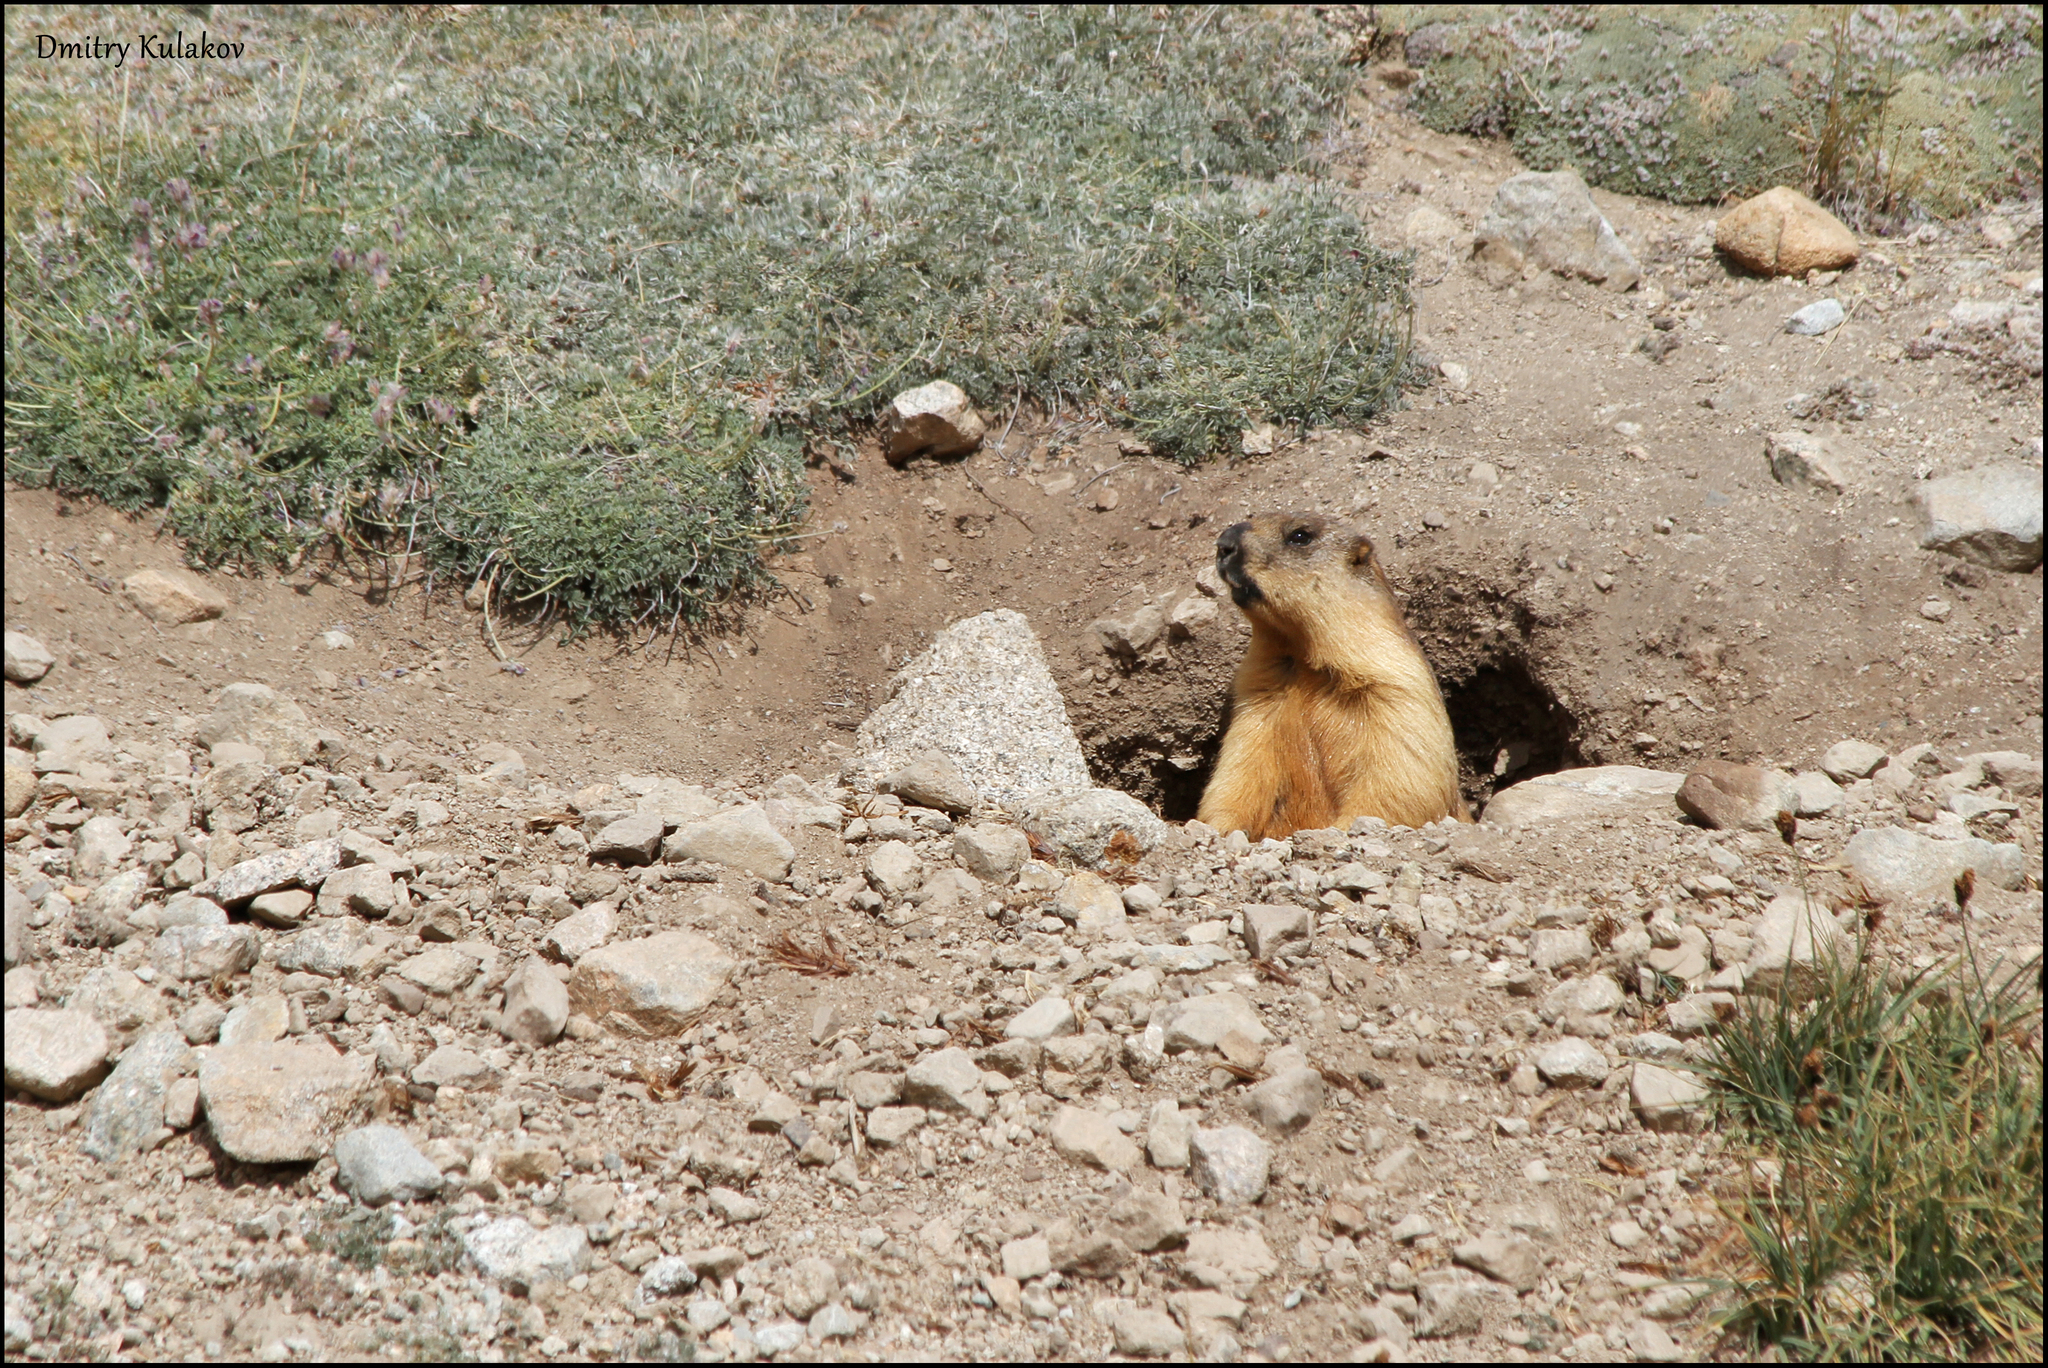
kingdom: Animalia
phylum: Chordata
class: Mammalia
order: Rodentia
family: Sciuridae
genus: Marmota
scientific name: Marmota caudata
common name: Long-tailed marmot
